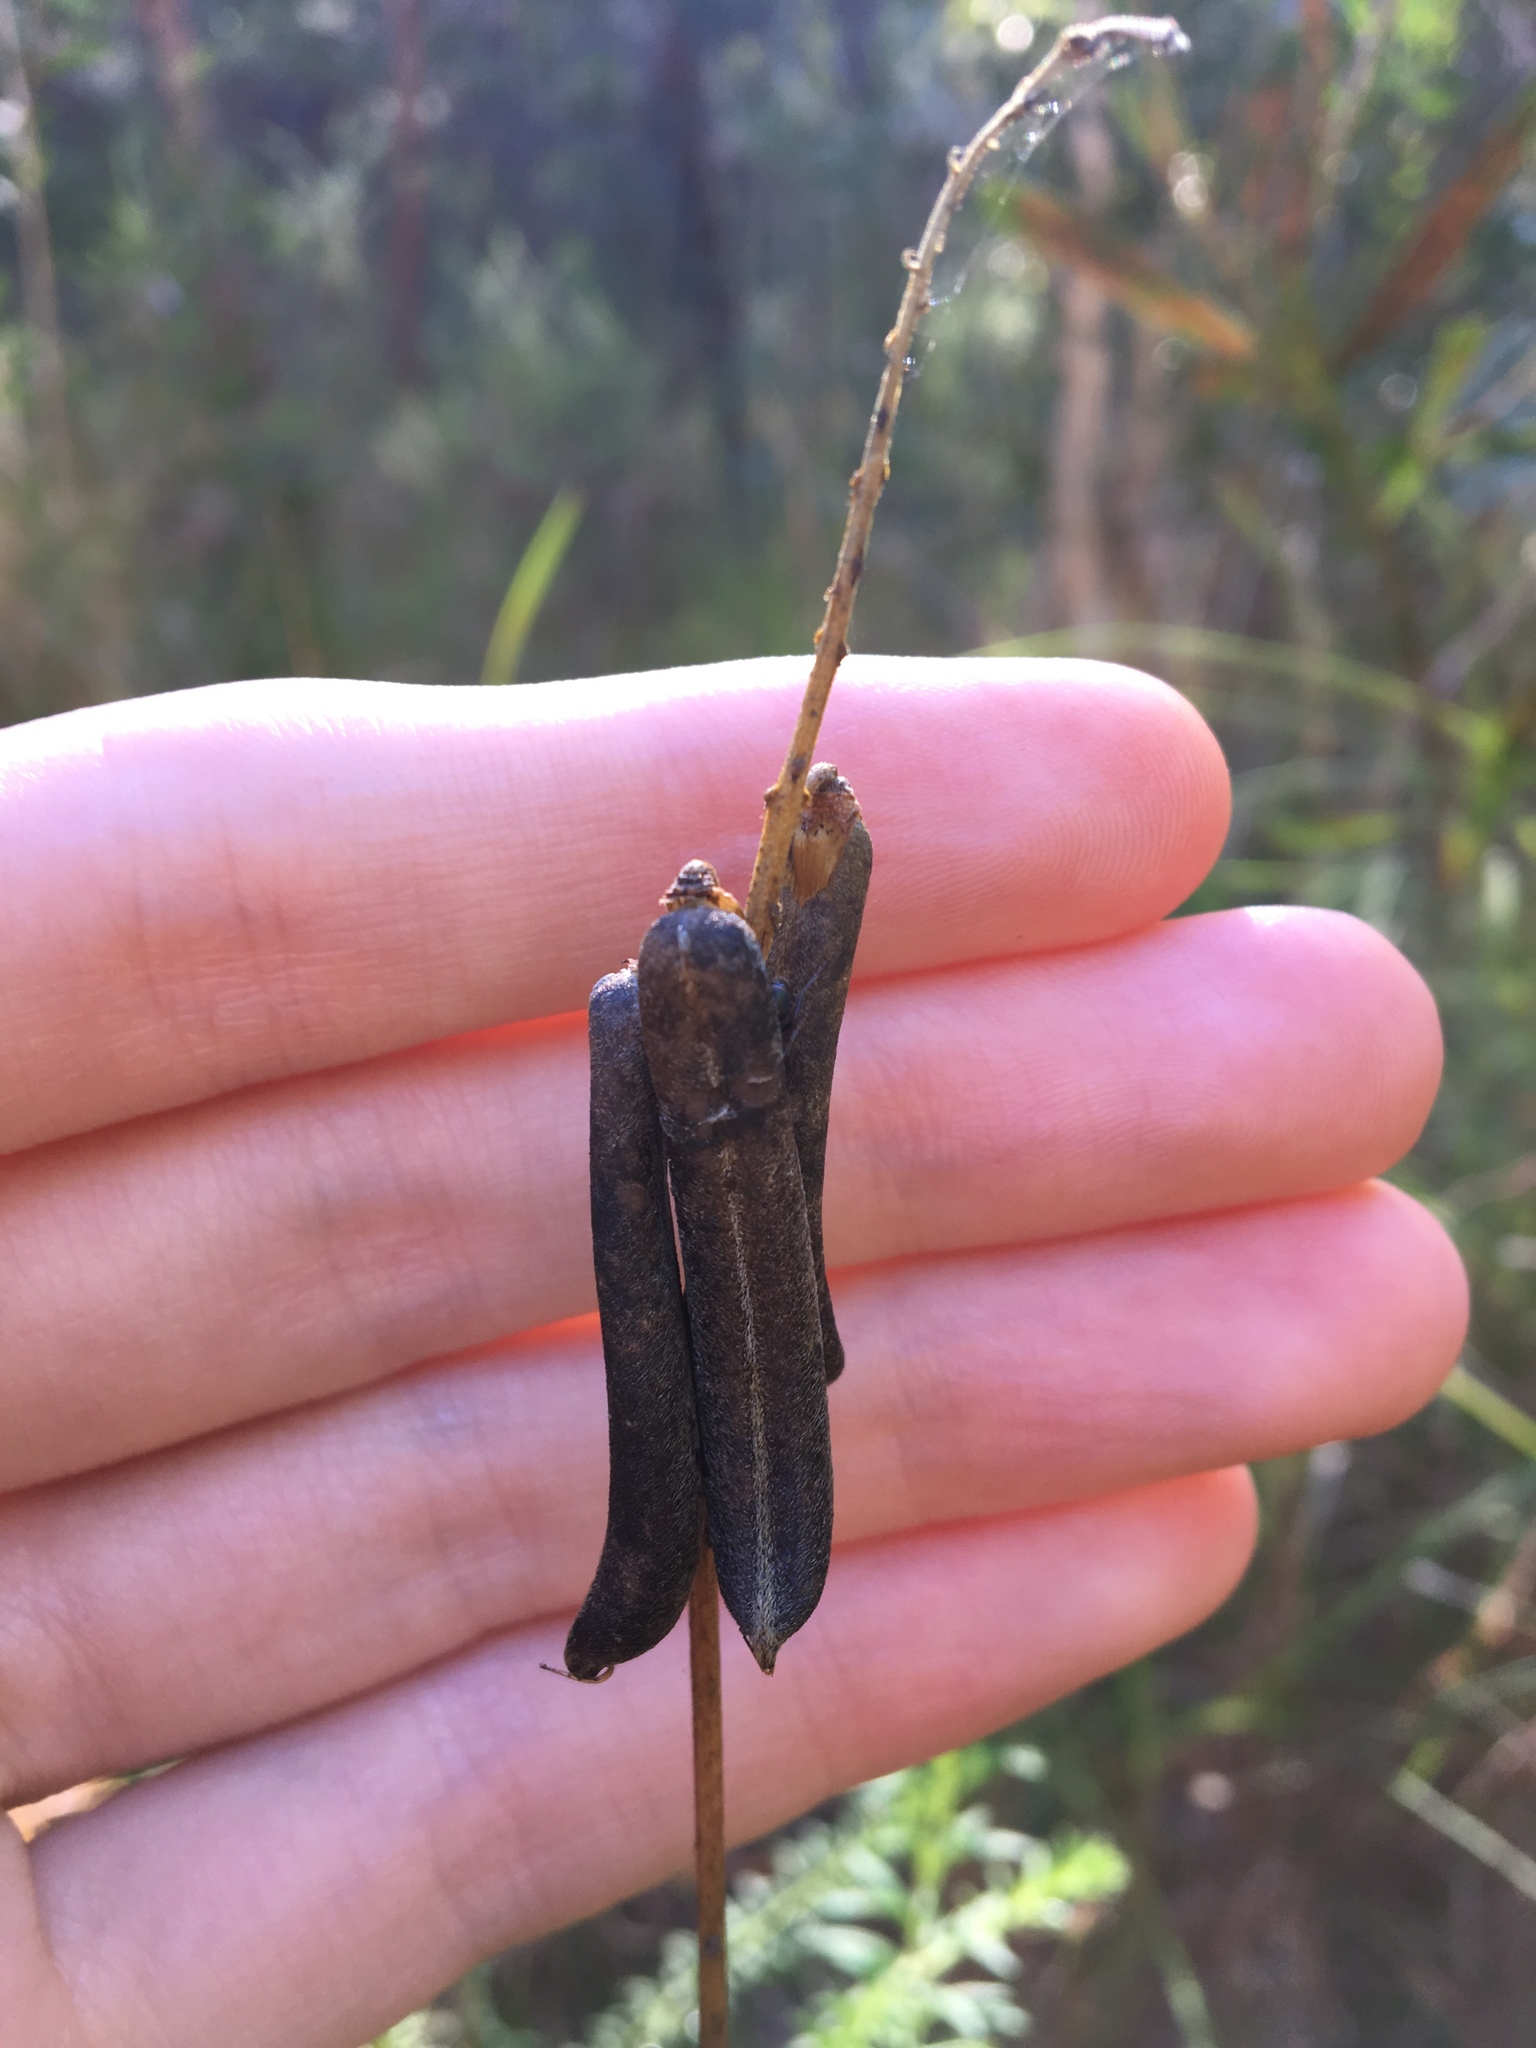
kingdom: Plantae
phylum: Tracheophyta
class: Magnoliopsida
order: Fabales
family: Fabaceae
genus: Crotalaria
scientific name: Crotalaria lanceolata
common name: Lanceleaf rattlebox
